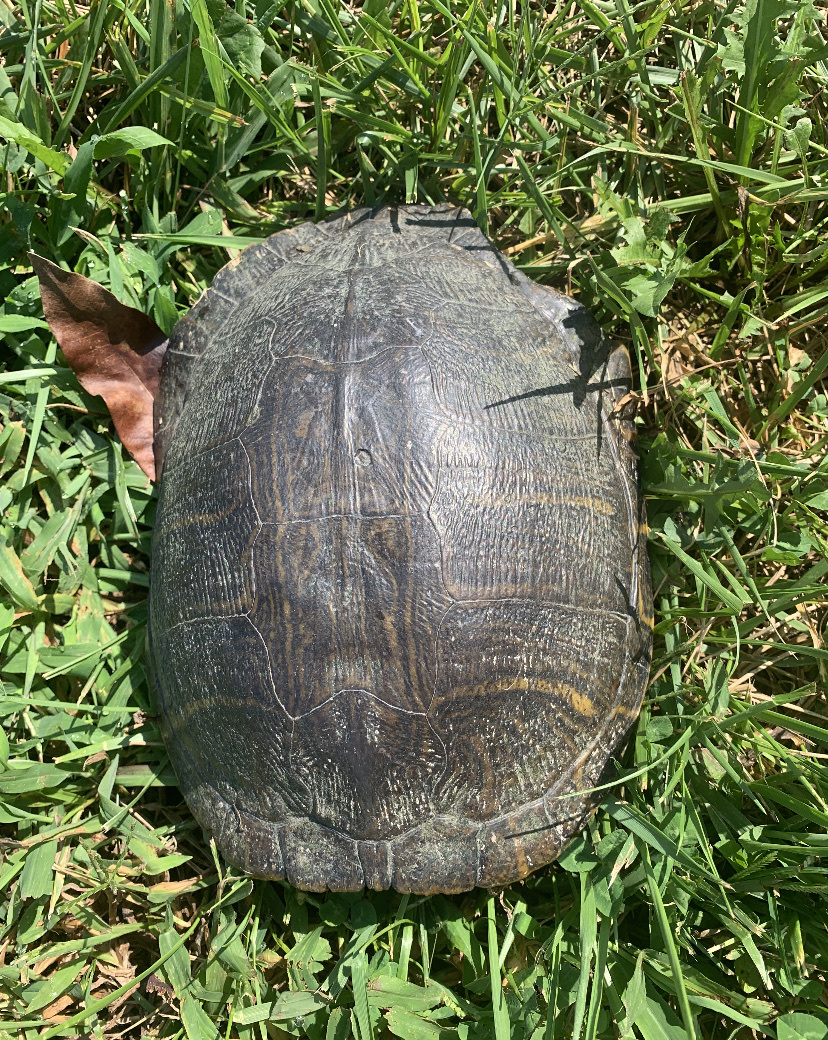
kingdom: Animalia
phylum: Chordata
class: Testudines
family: Emydidae
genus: Trachemys
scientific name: Trachemys scripta
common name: Slider
